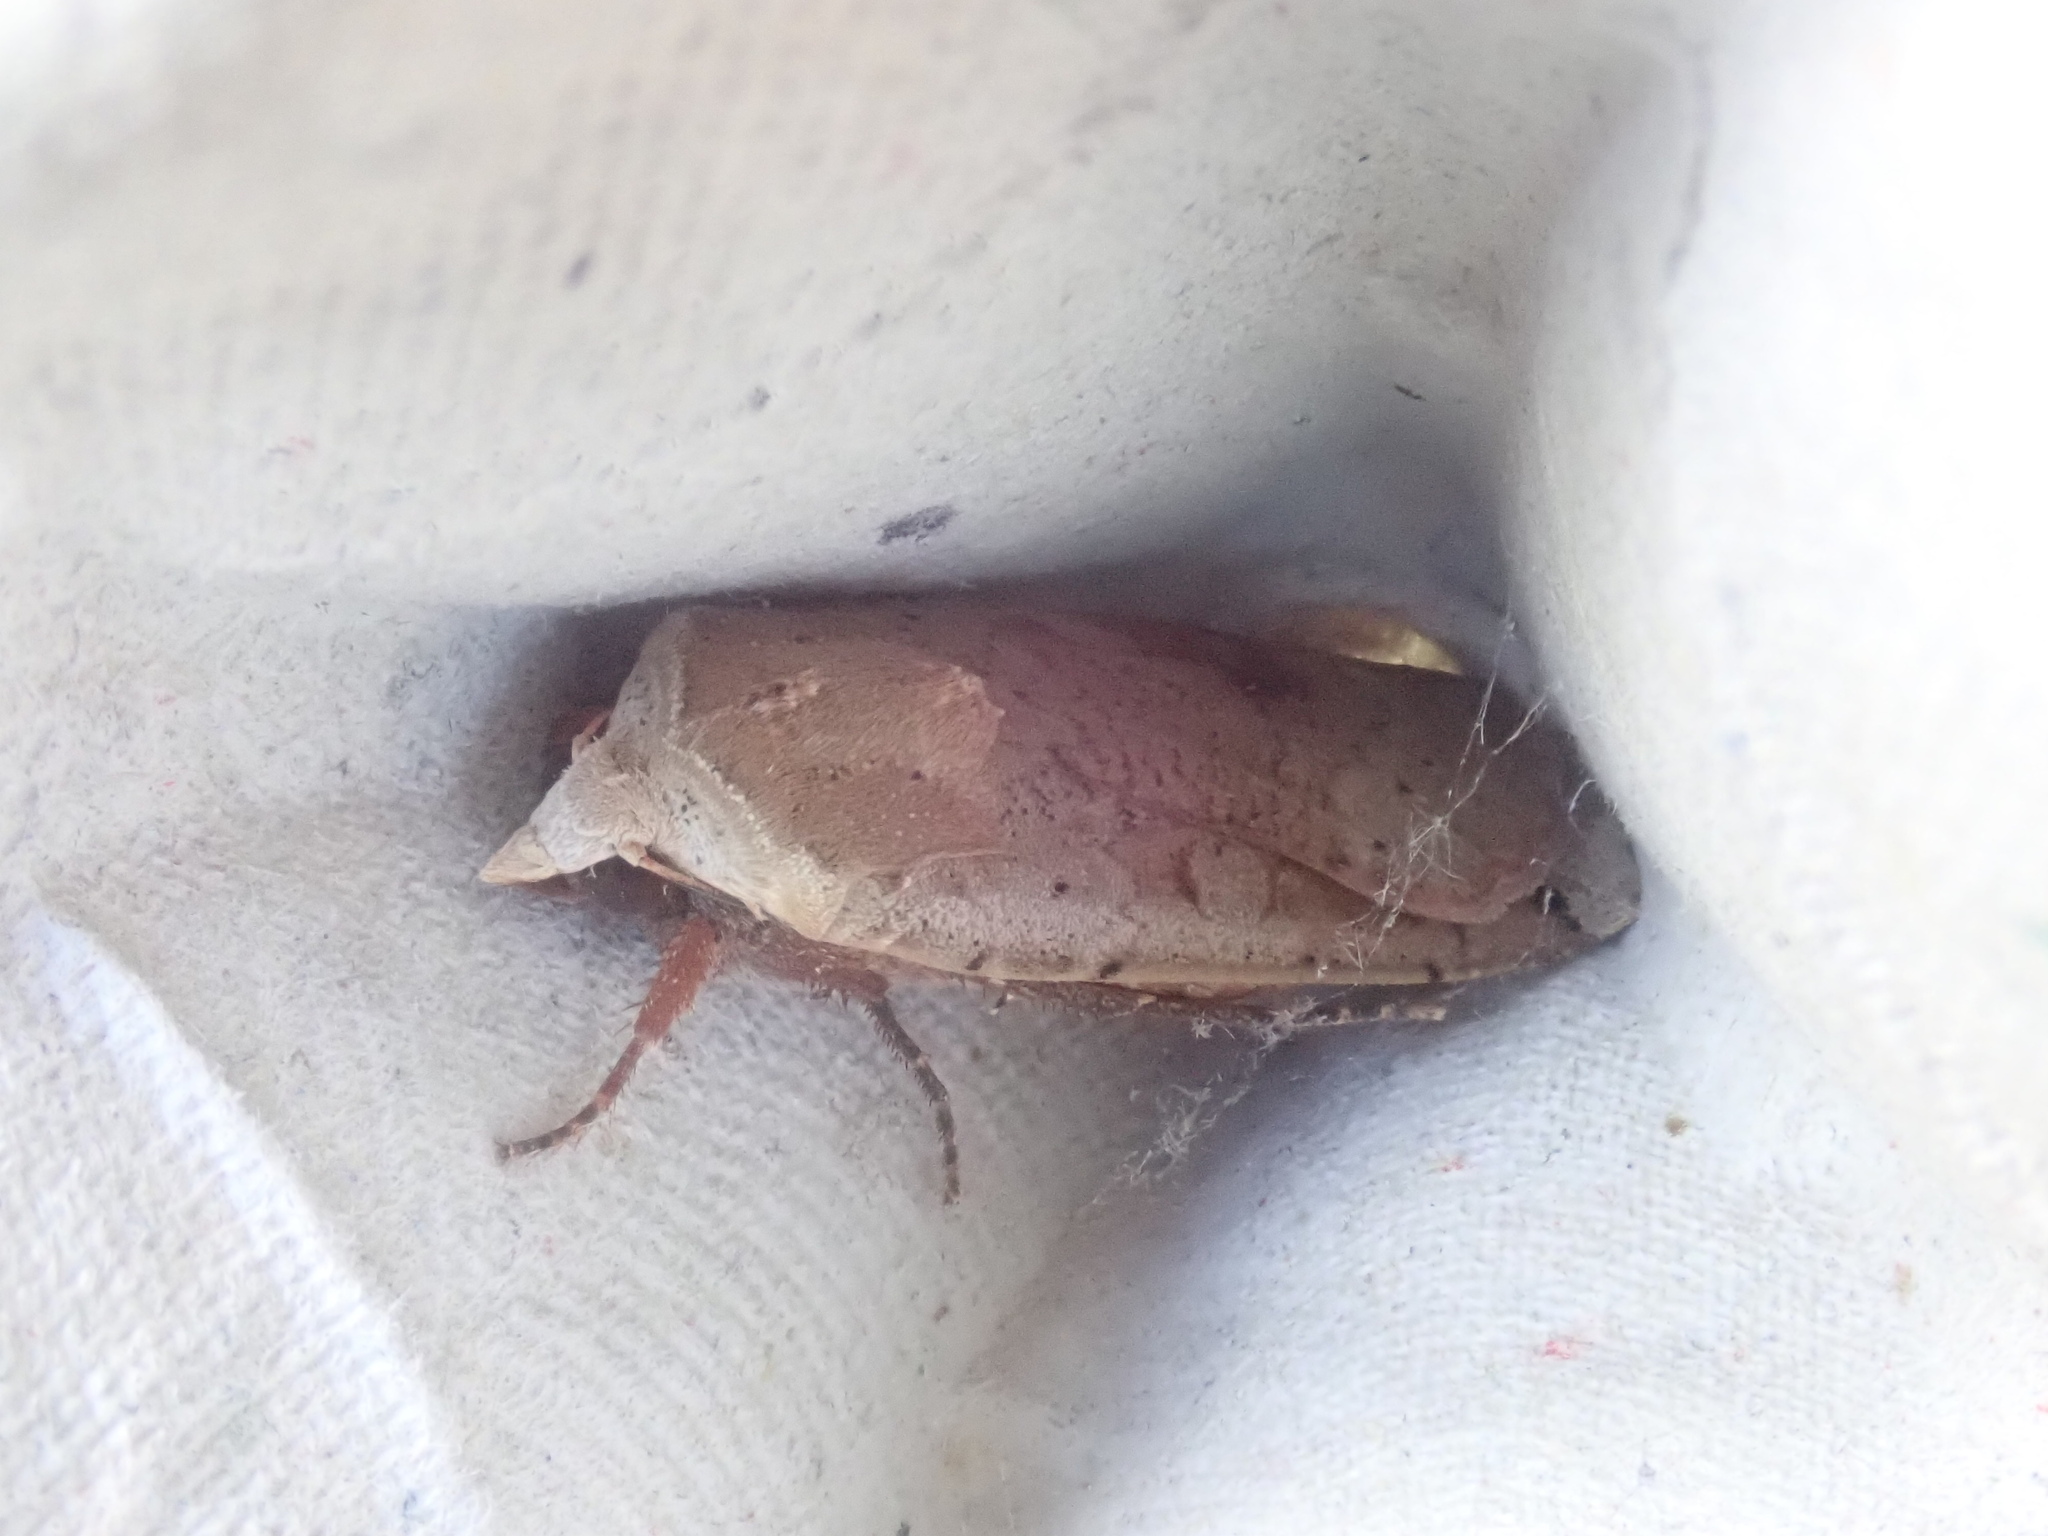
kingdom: Animalia
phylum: Arthropoda
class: Insecta
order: Lepidoptera
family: Noctuidae
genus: Noctua
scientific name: Noctua pronuba
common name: Large yellow underwing
